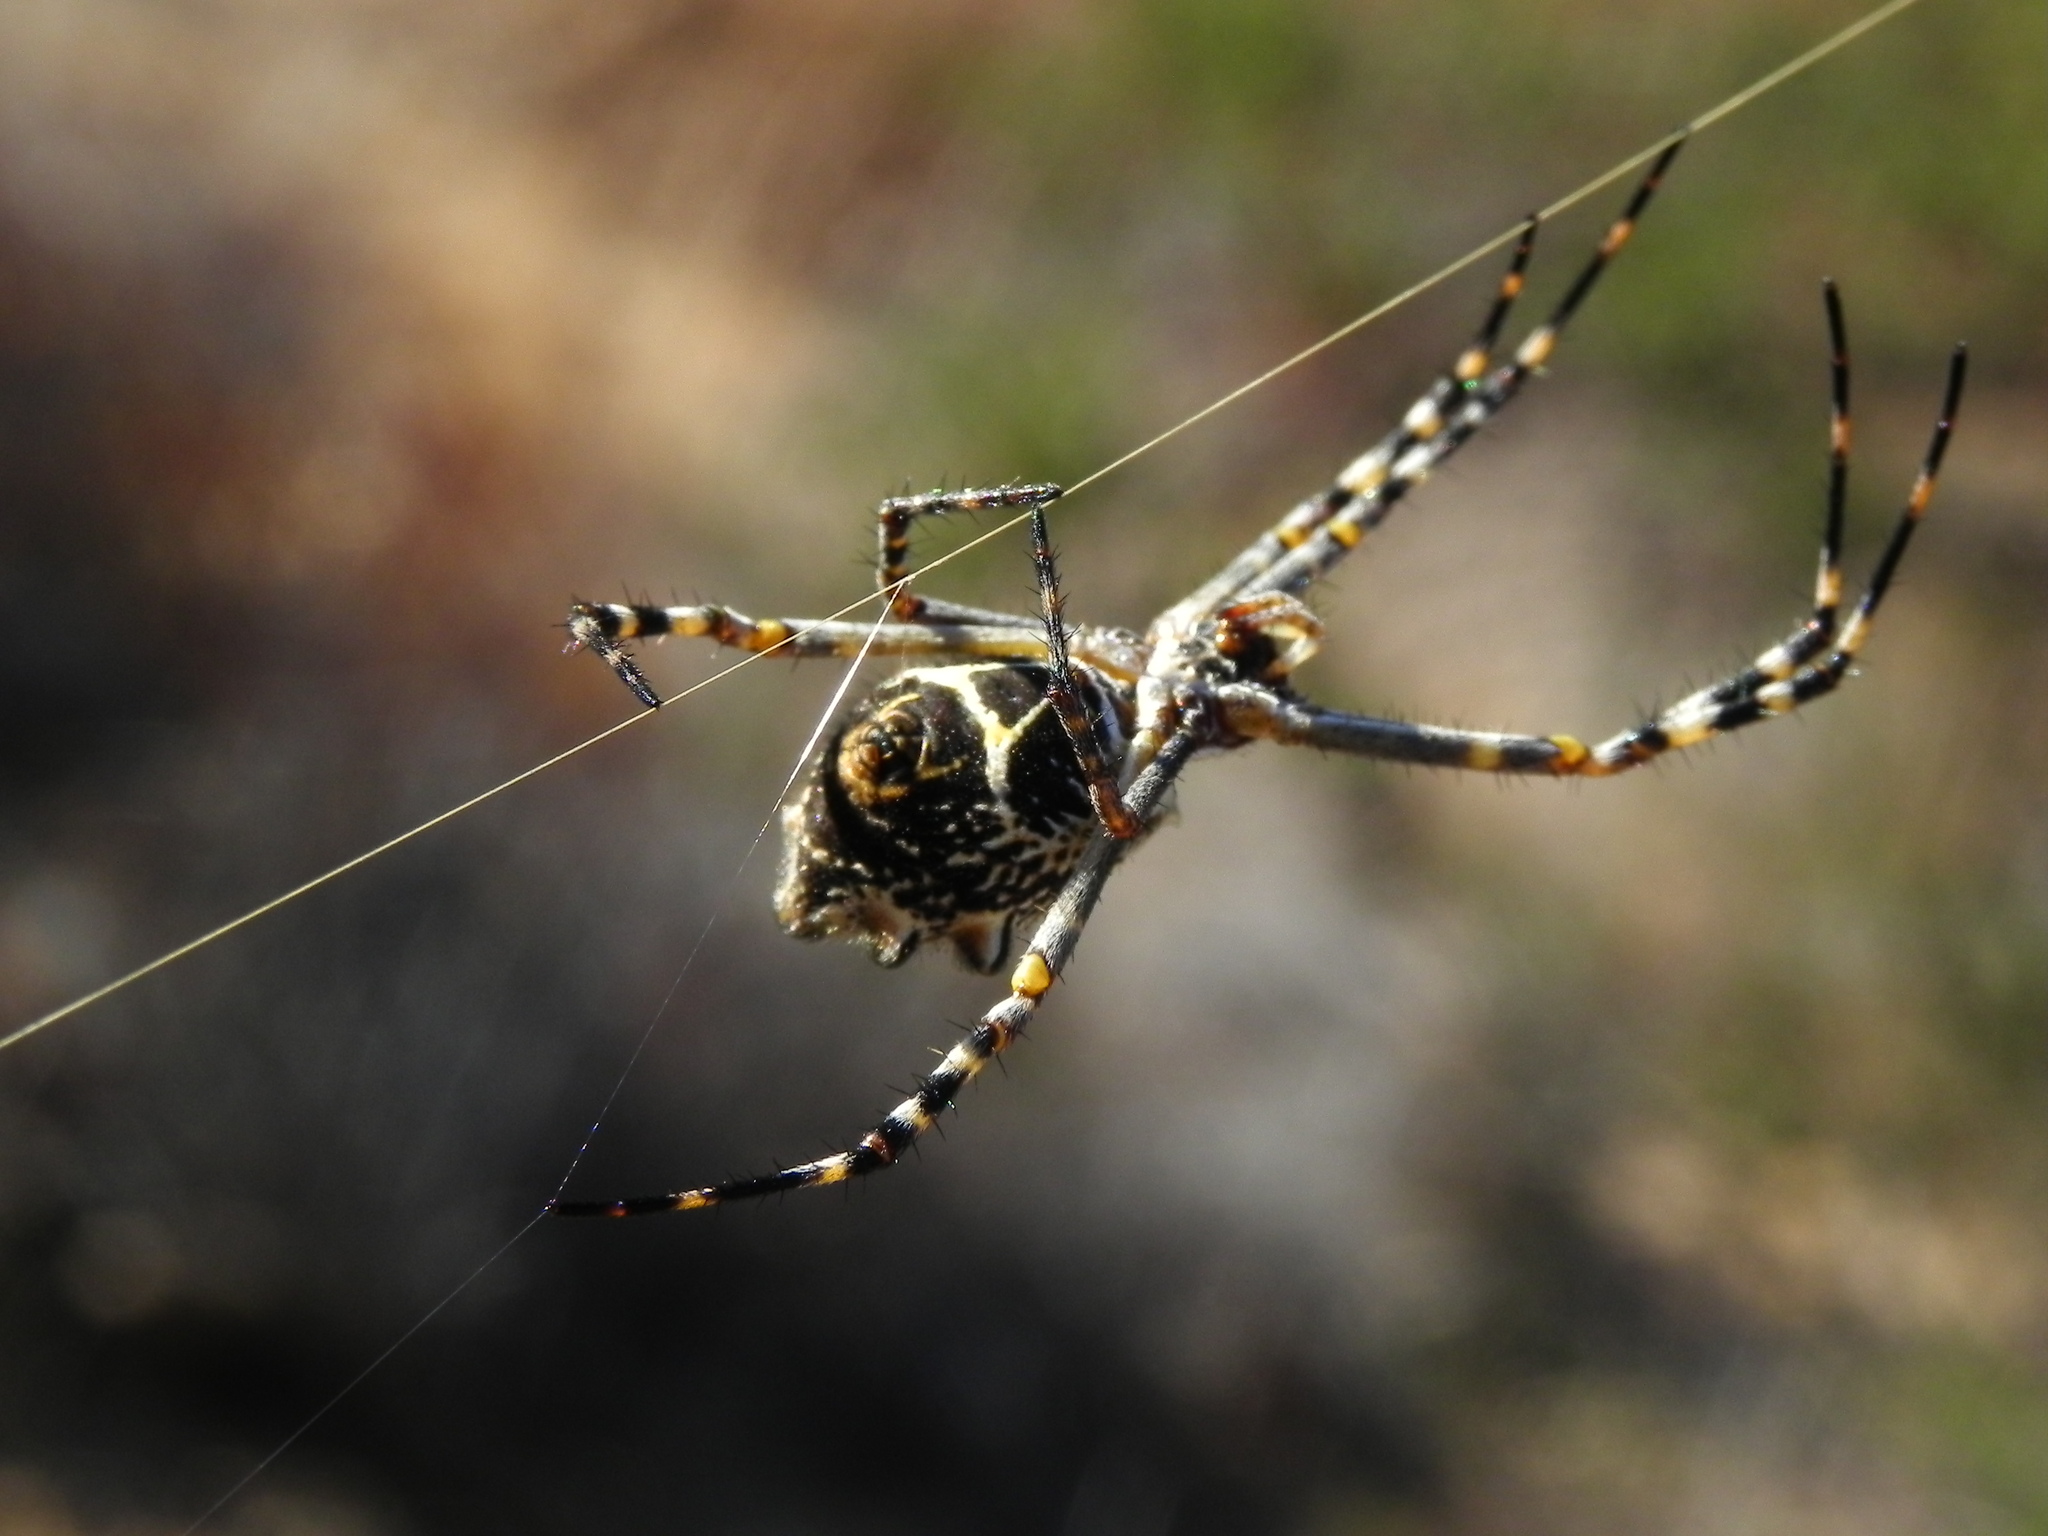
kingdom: Animalia
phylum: Arthropoda
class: Arachnida
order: Araneae
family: Araneidae
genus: Argiope
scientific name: Argiope argentata
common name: Orb weavers
